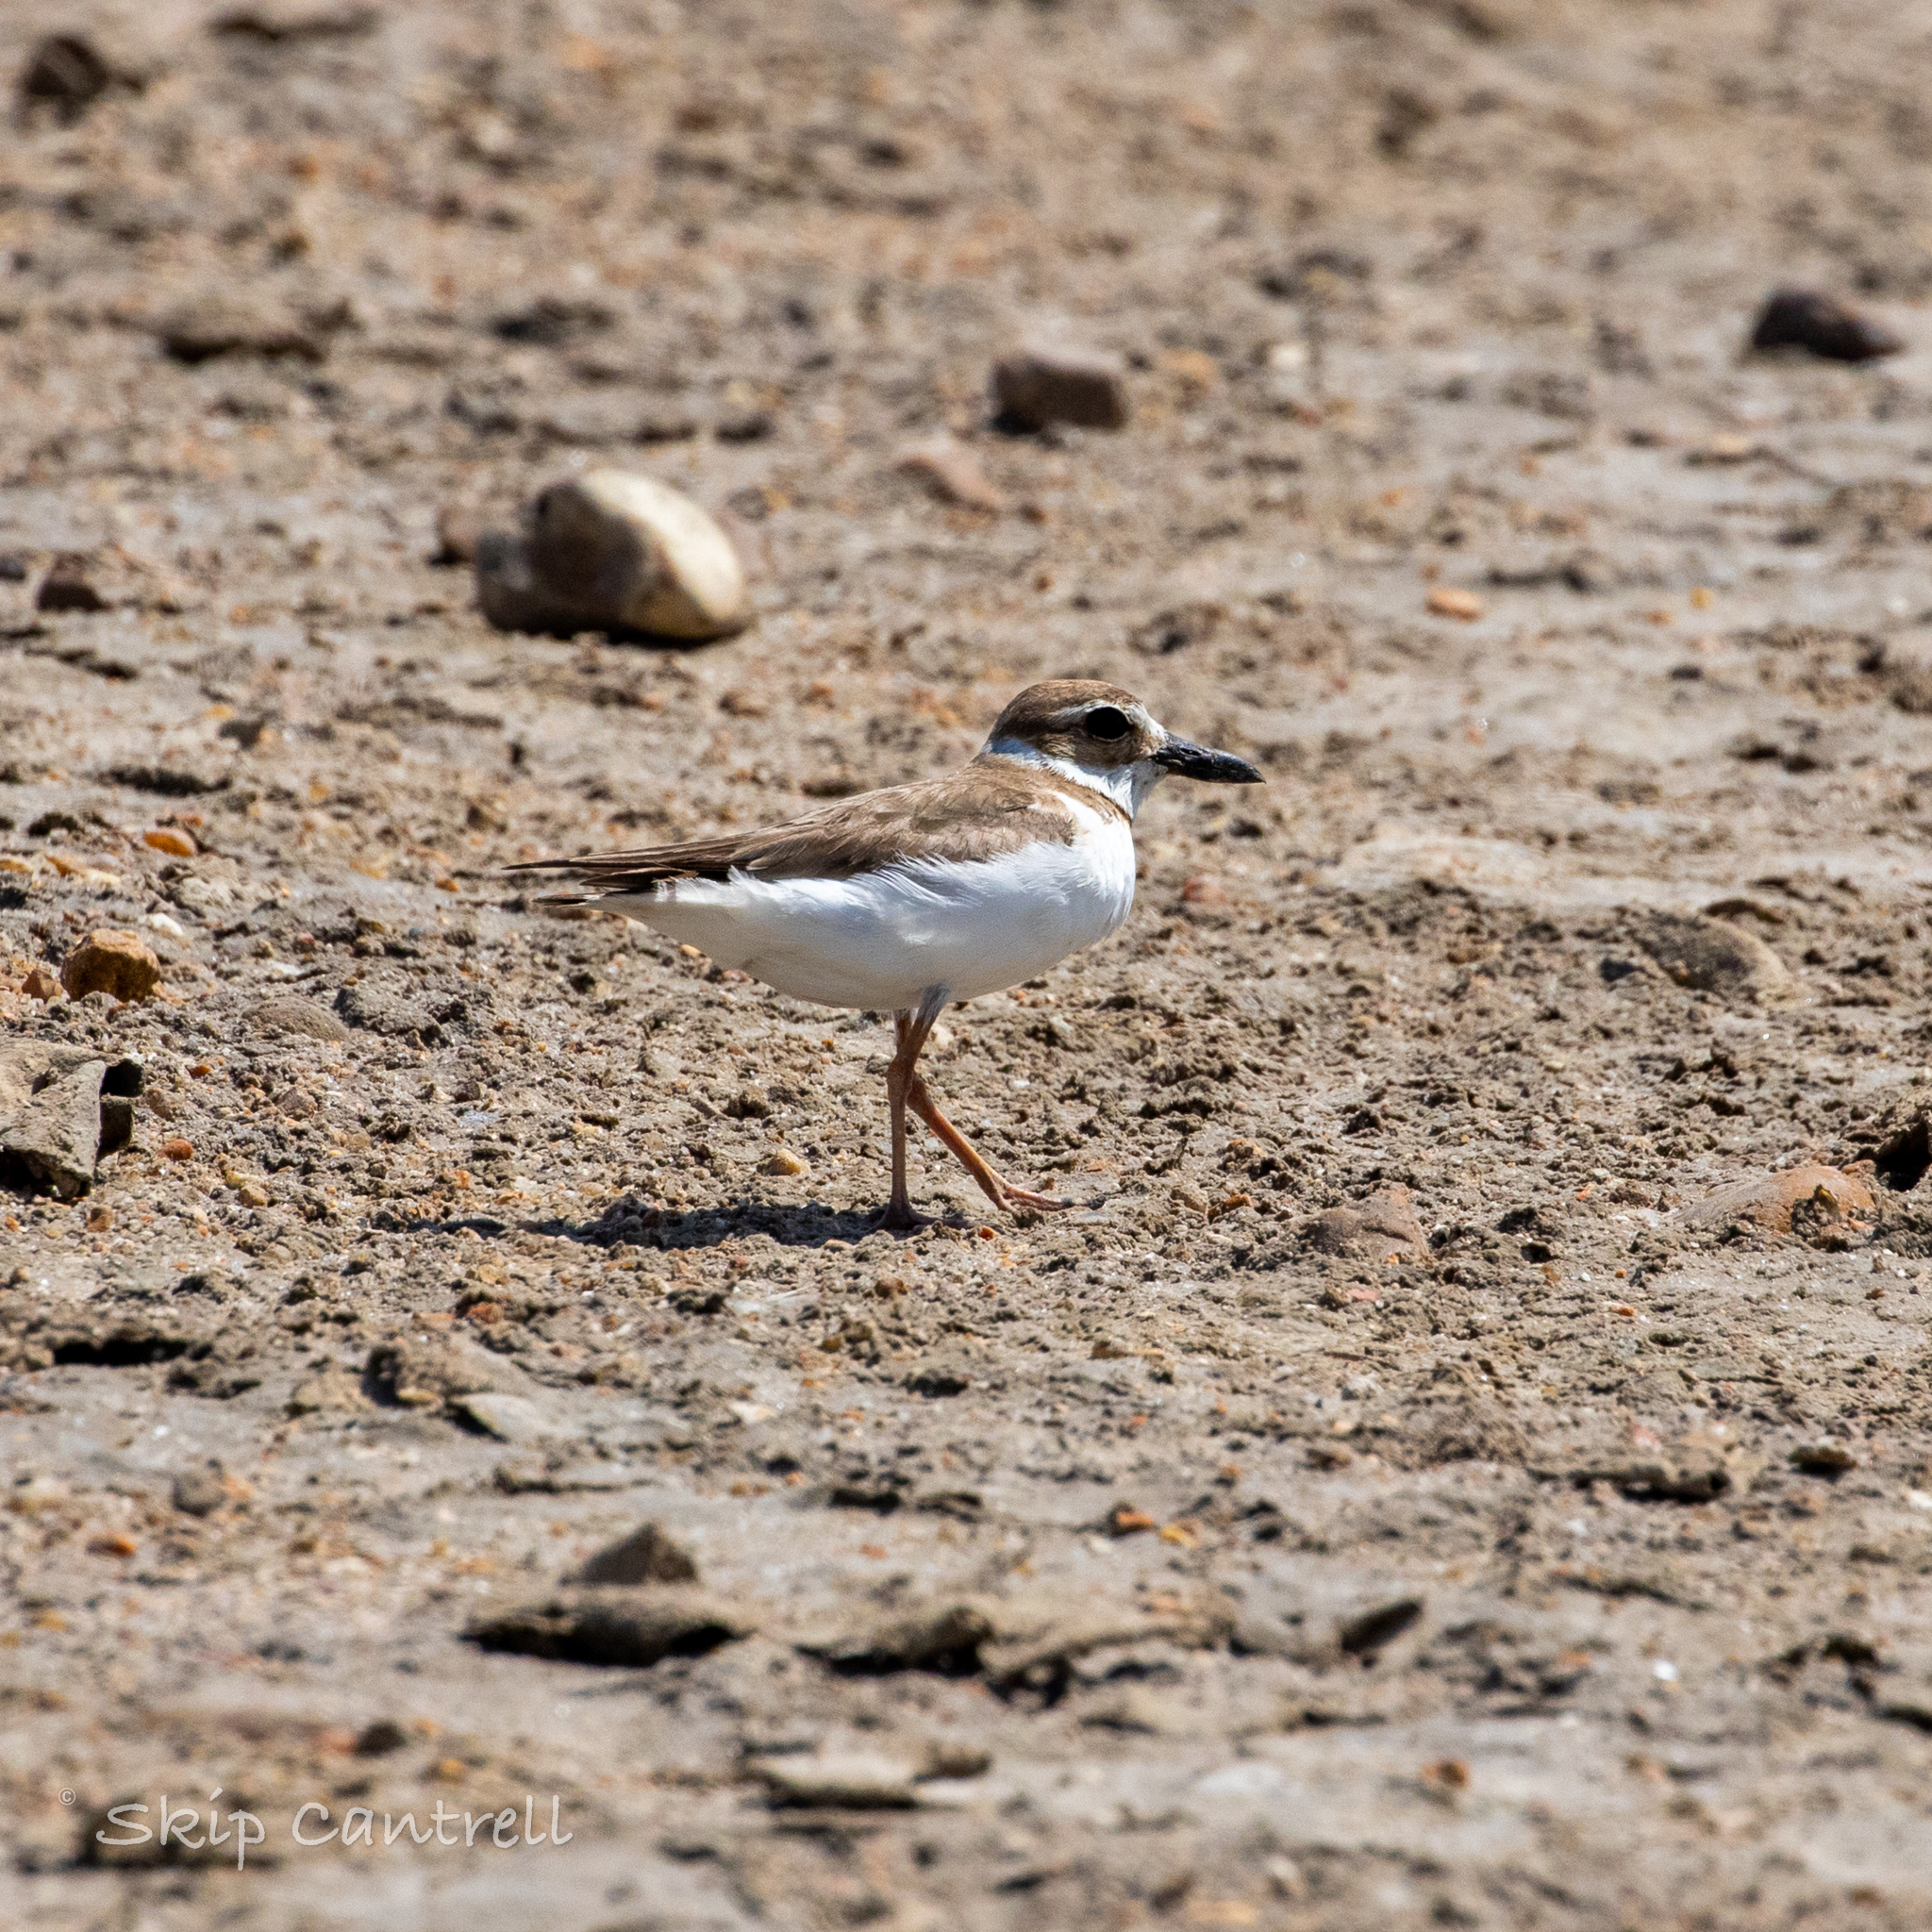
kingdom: Animalia
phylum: Chordata
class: Aves
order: Charadriiformes
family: Charadriidae
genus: Anarhynchus
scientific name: Anarhynchus
